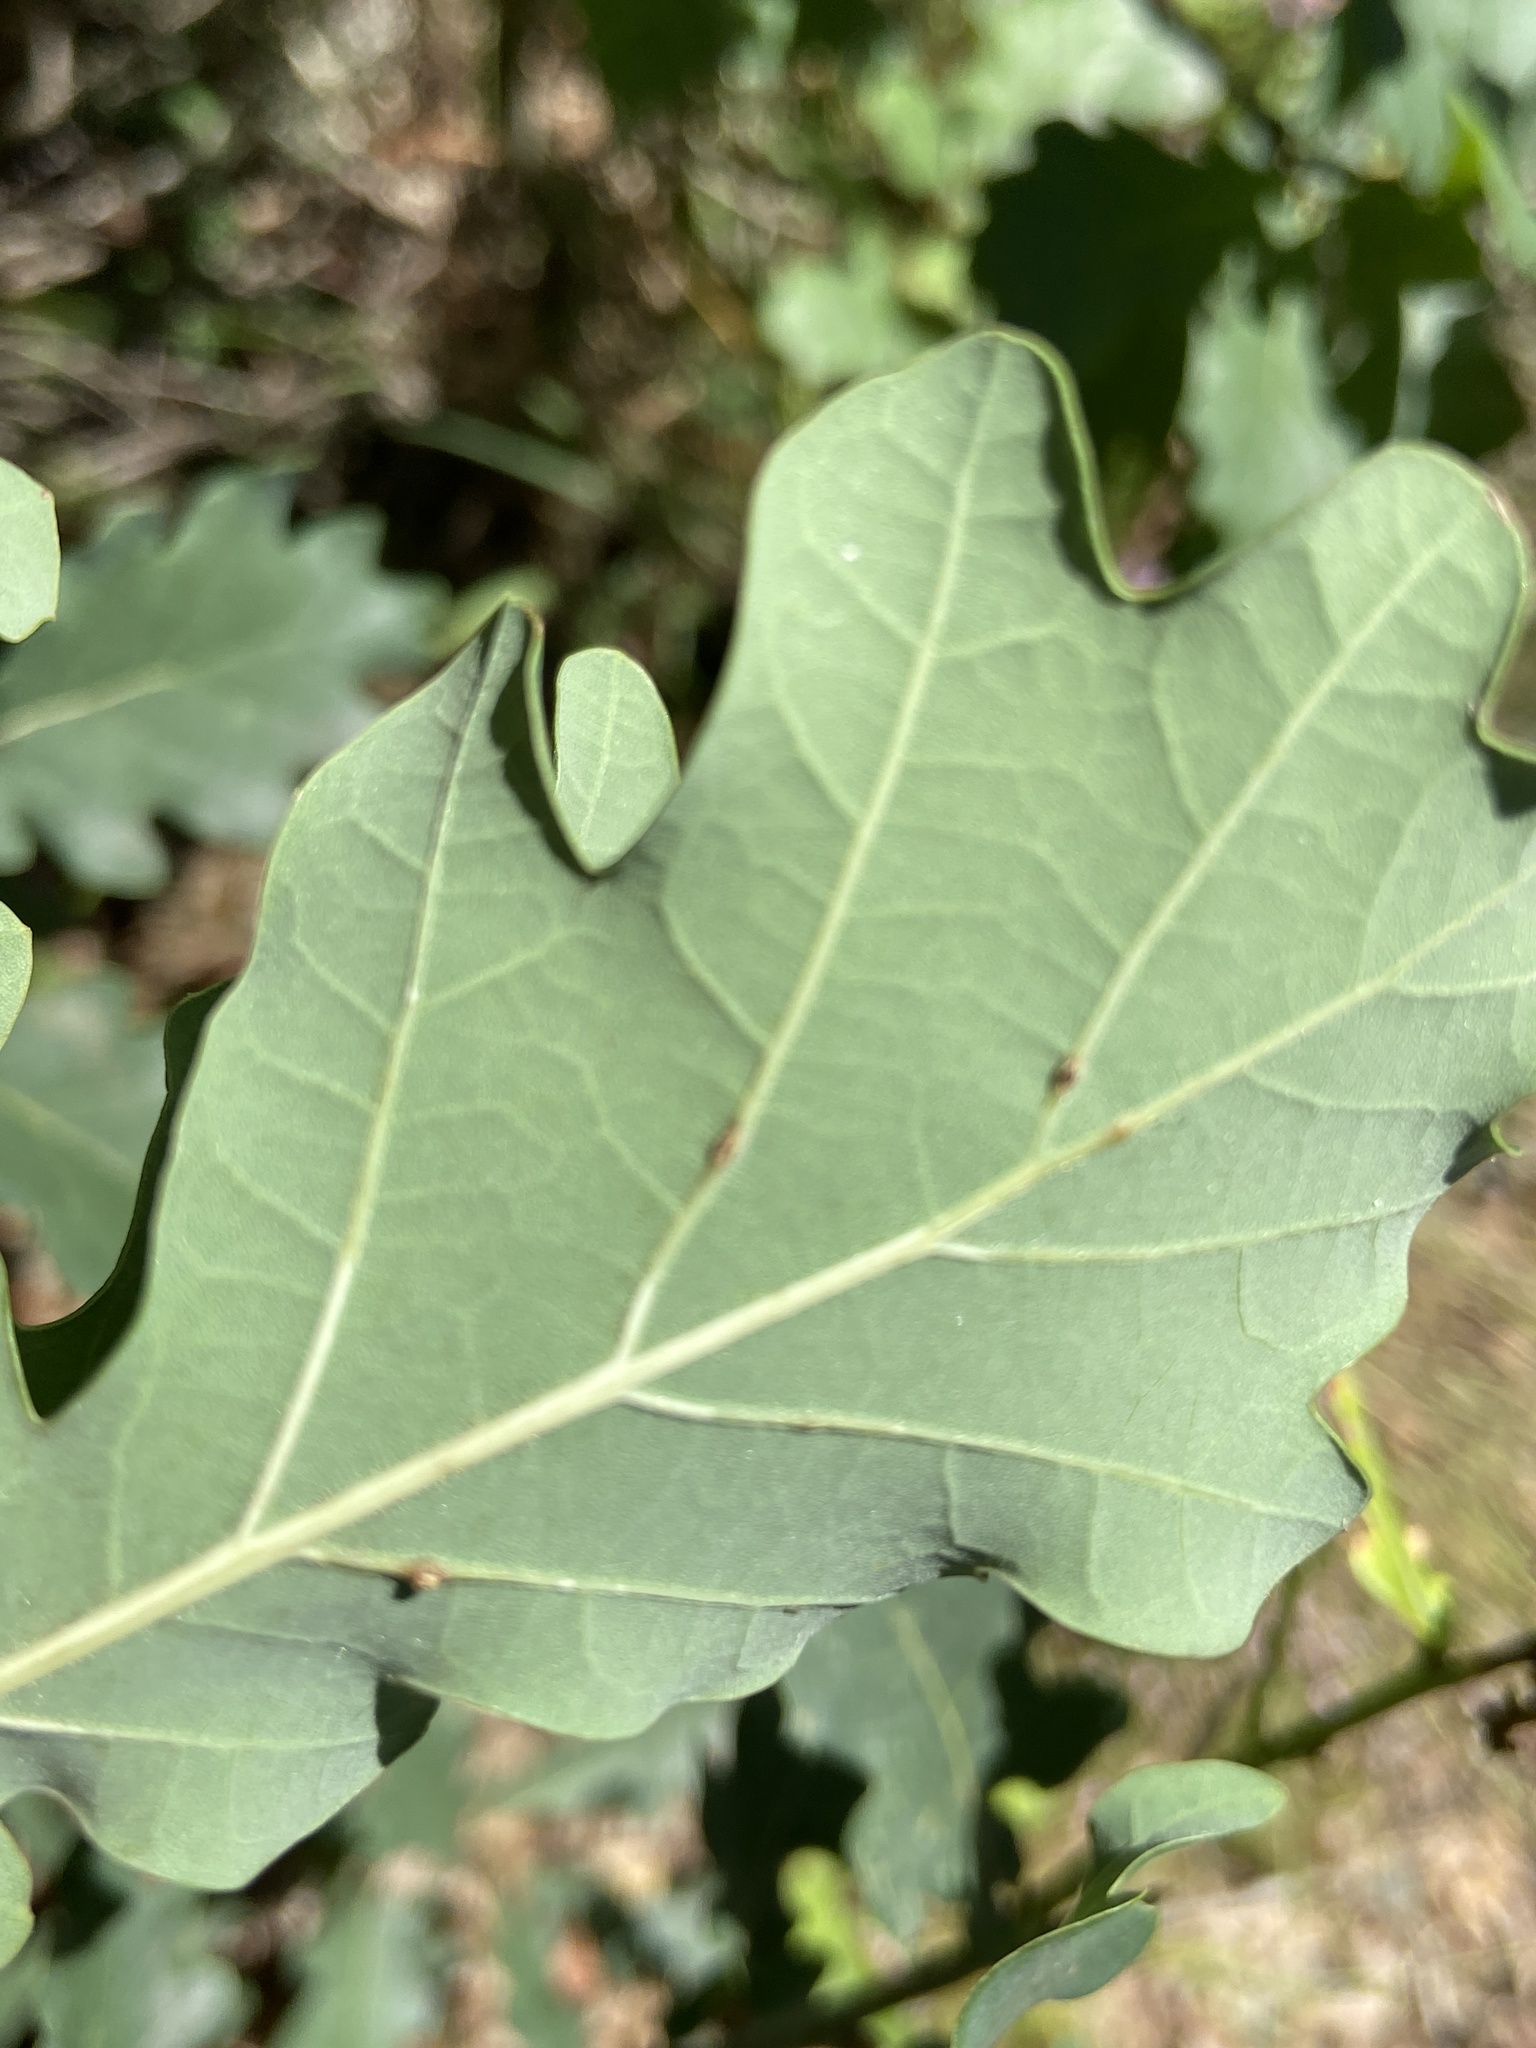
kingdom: Animalia
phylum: Arthropoda
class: Insecta
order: Hymenoptera
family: Cynipidae
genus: Neuroterus
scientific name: Neuroterus anthracinus
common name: Oyster gall
